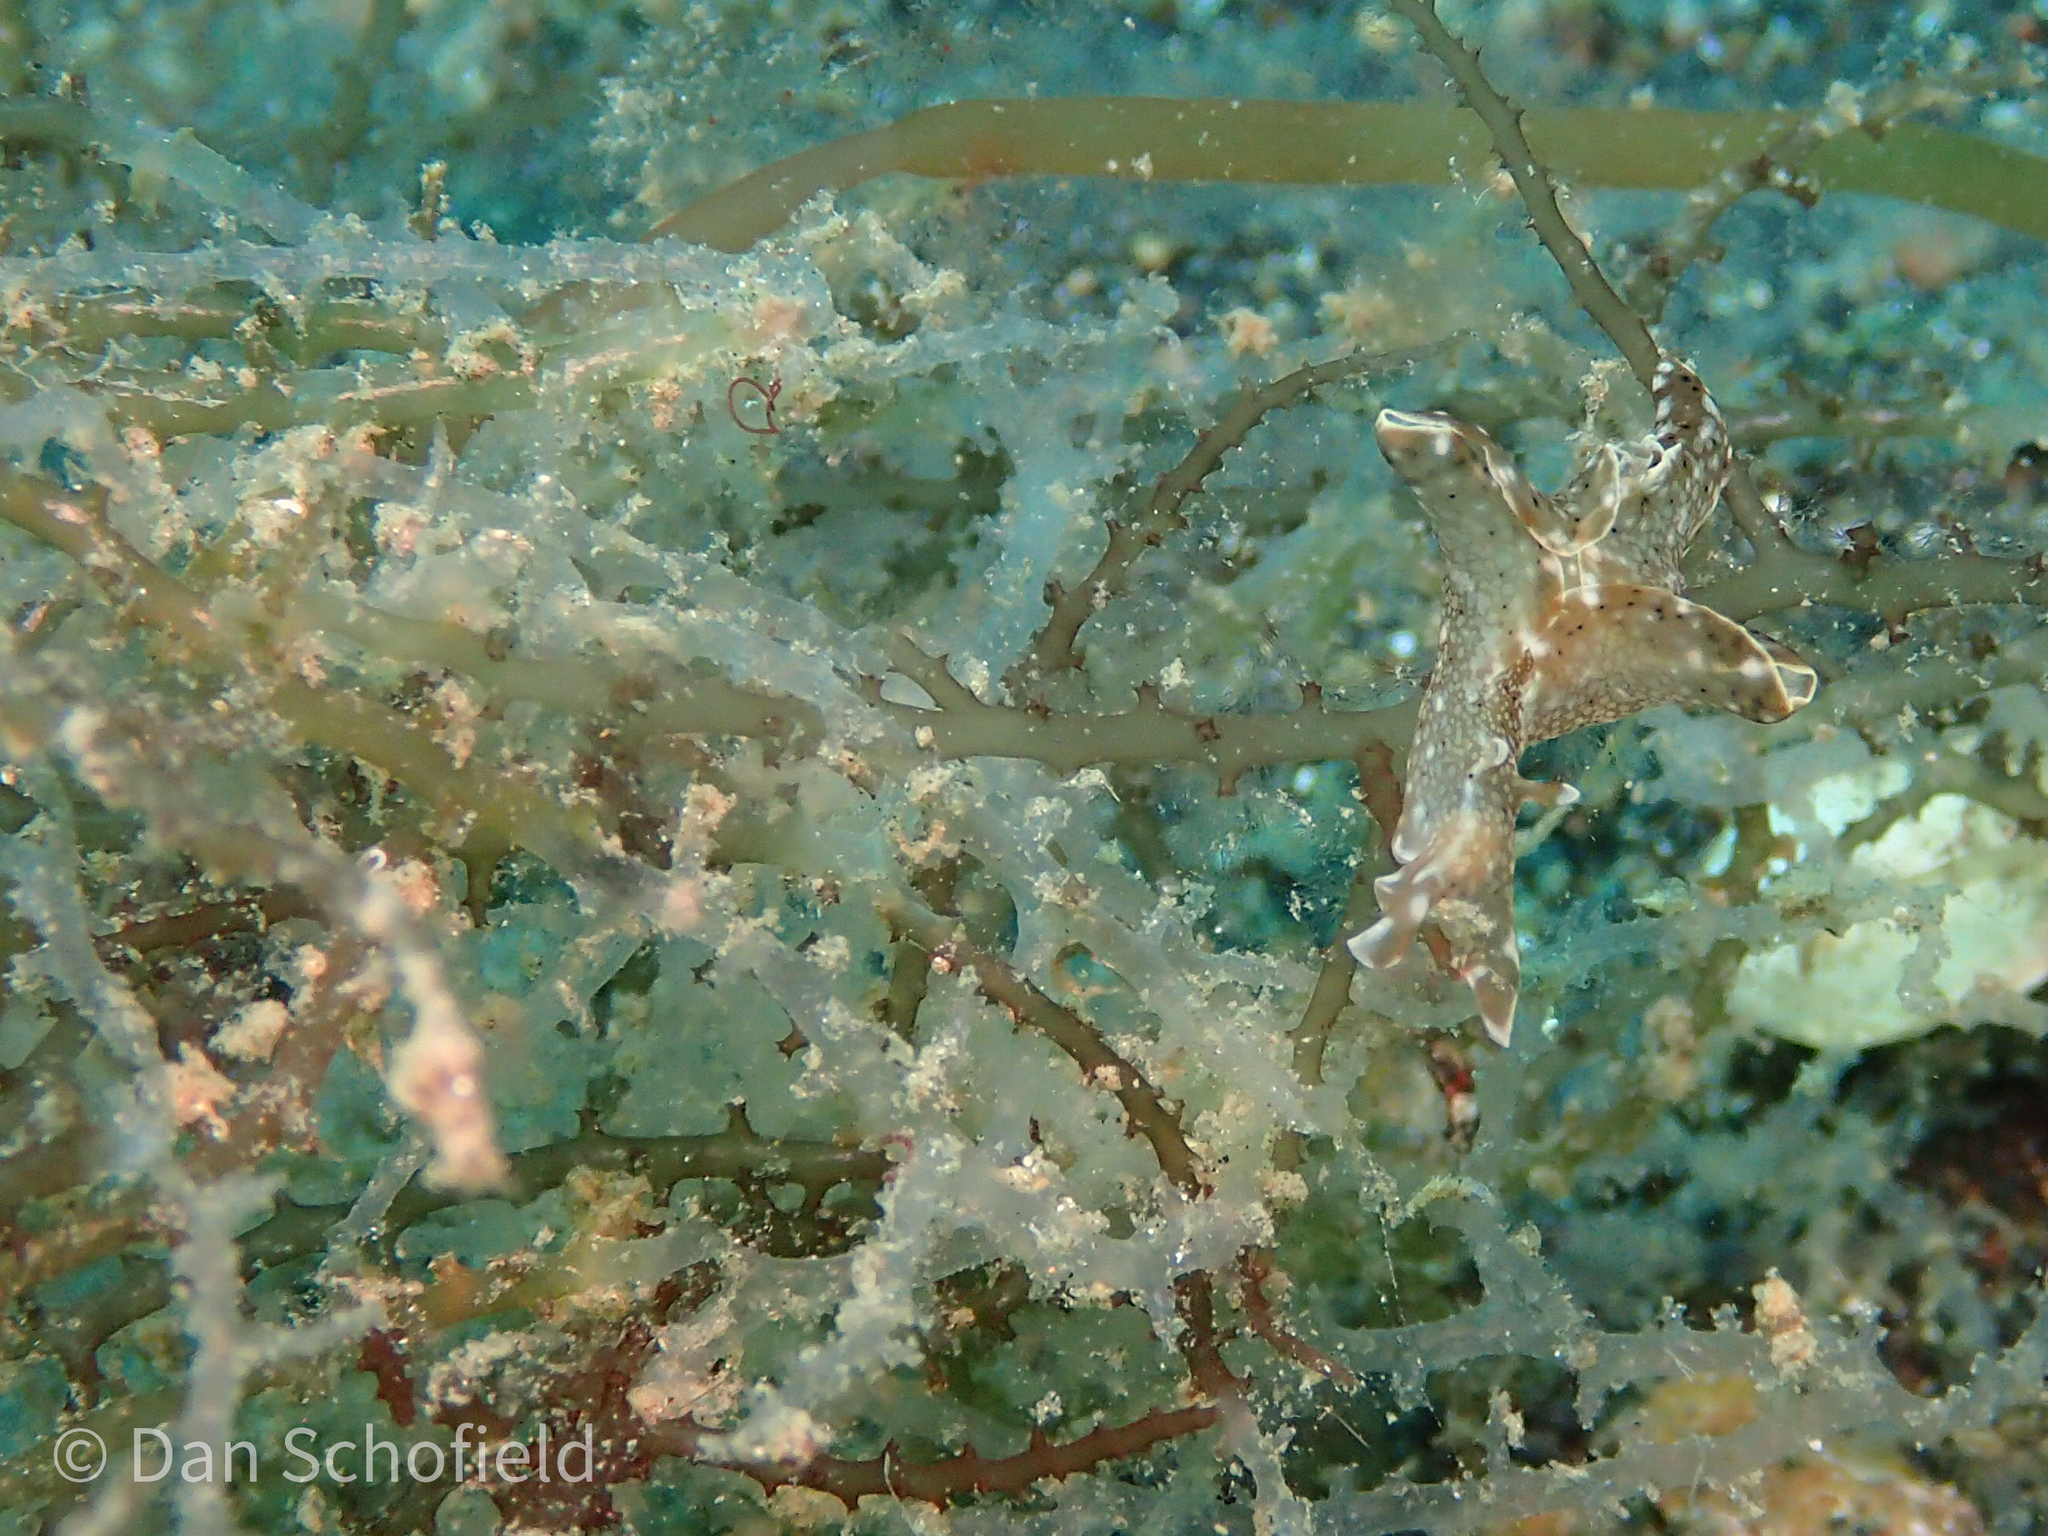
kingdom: Plantae
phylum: Rhodophyta
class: Florideophyceae
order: Ceramiales
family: Rhodomelaceae
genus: Acanthophora
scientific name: Acanthophora spicifera
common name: Red algae
